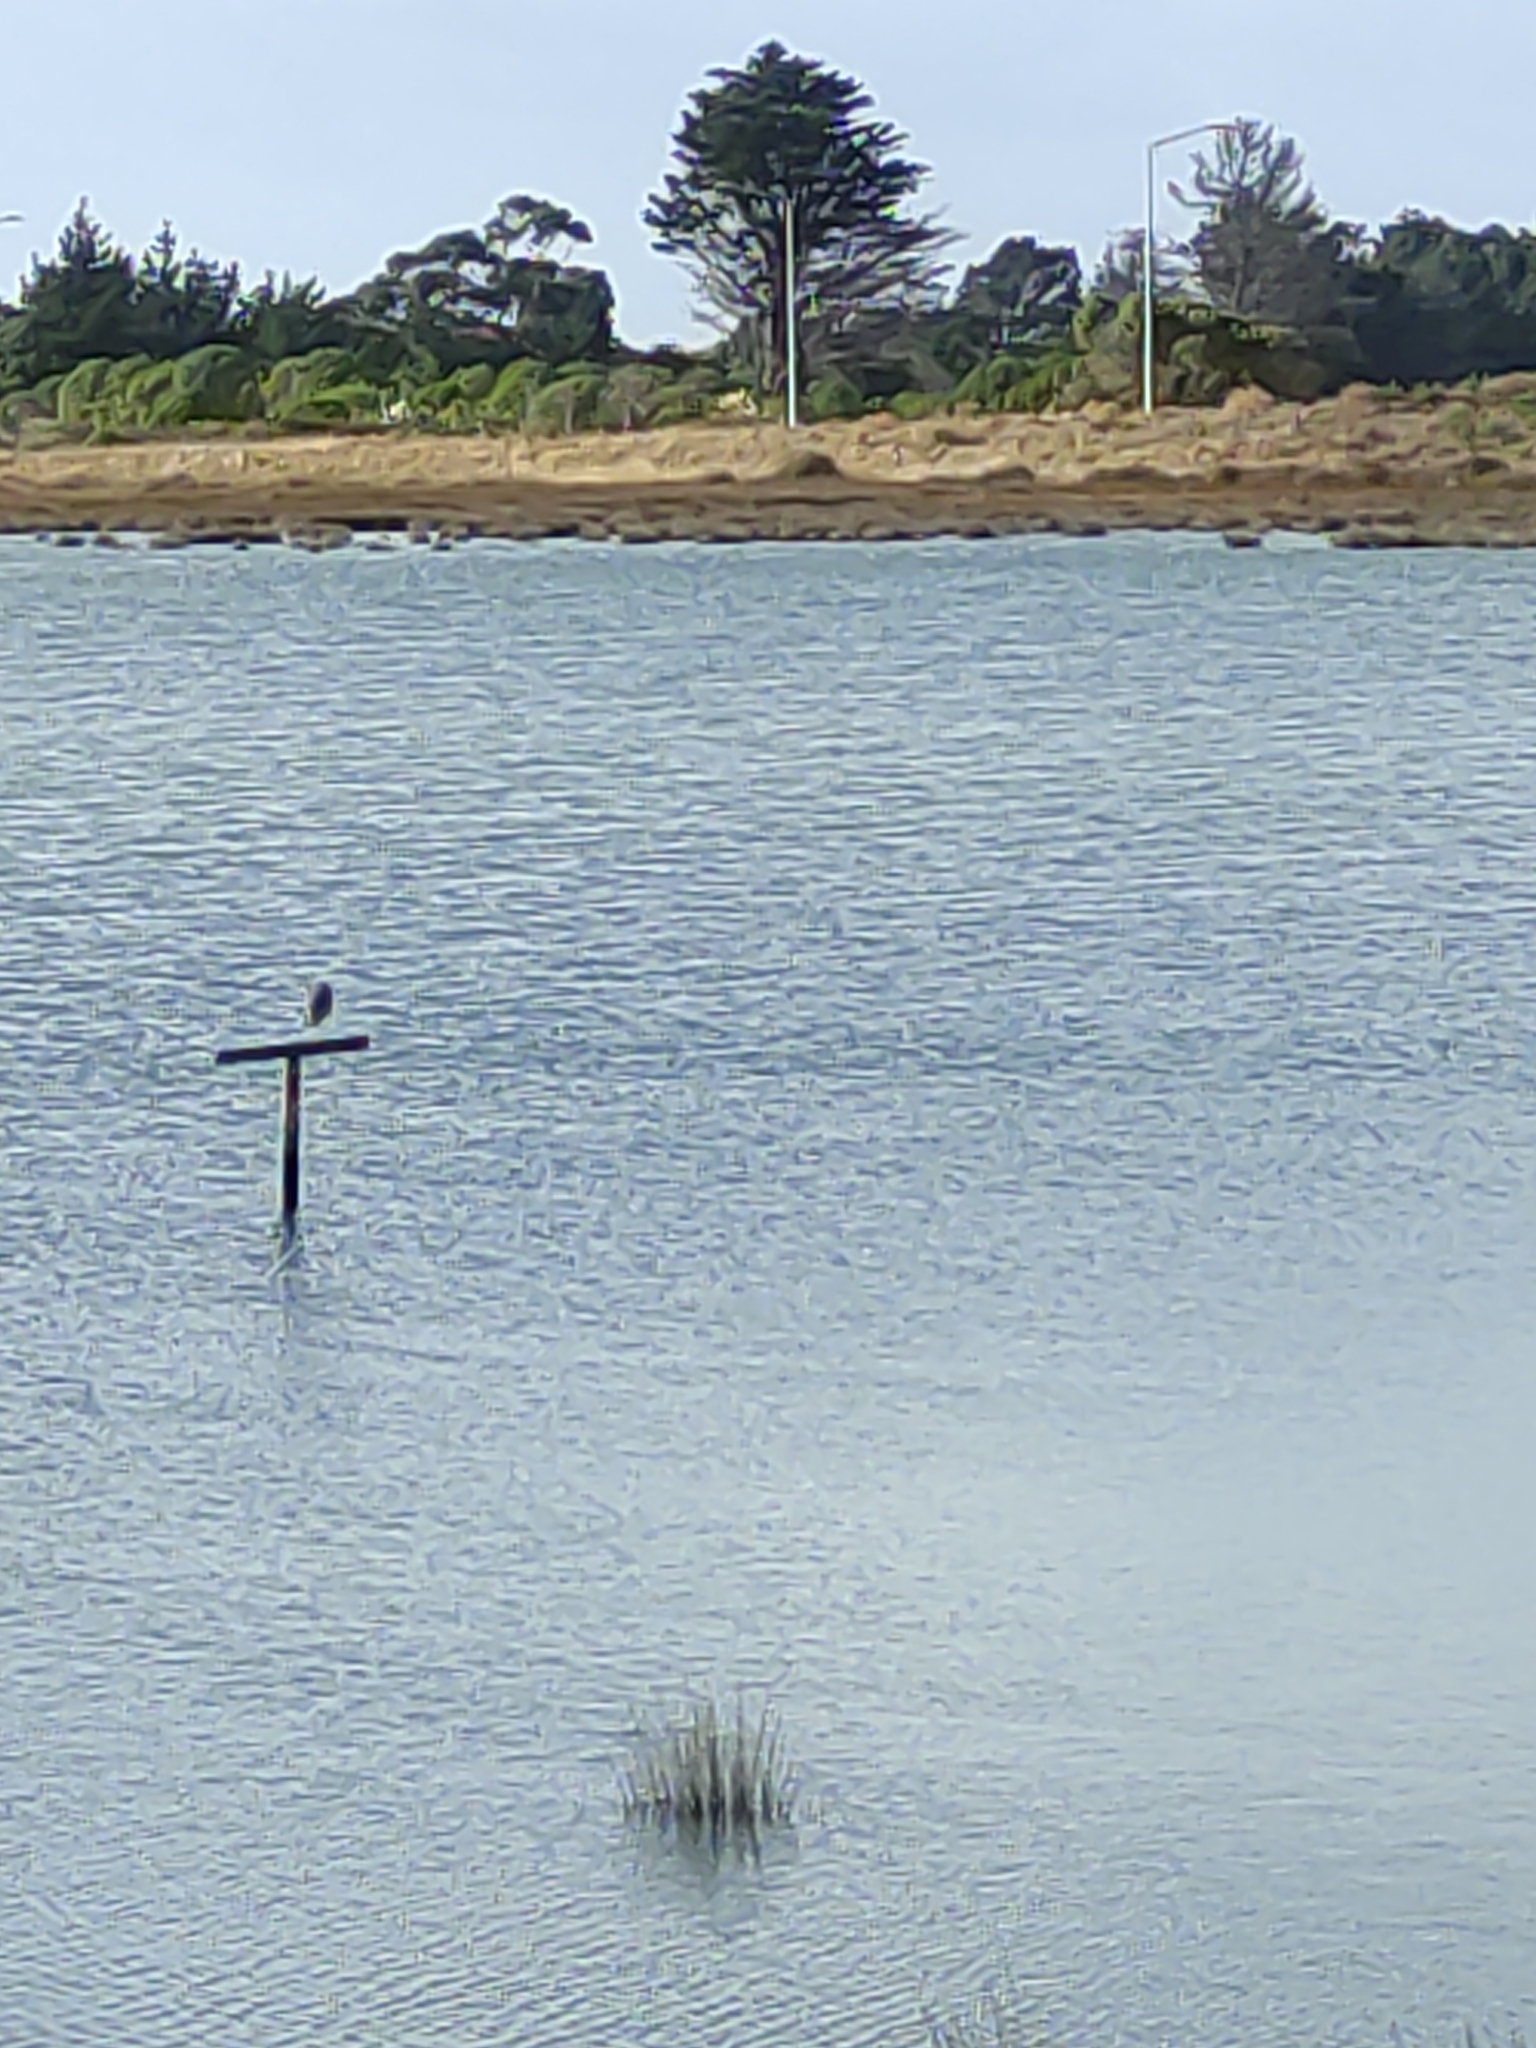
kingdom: Animalia
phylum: Chordata
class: Aves
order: Pelecaniformes
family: Ardeidae
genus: Egretta
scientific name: Egretta novaehollandiae
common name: White-faced heron
